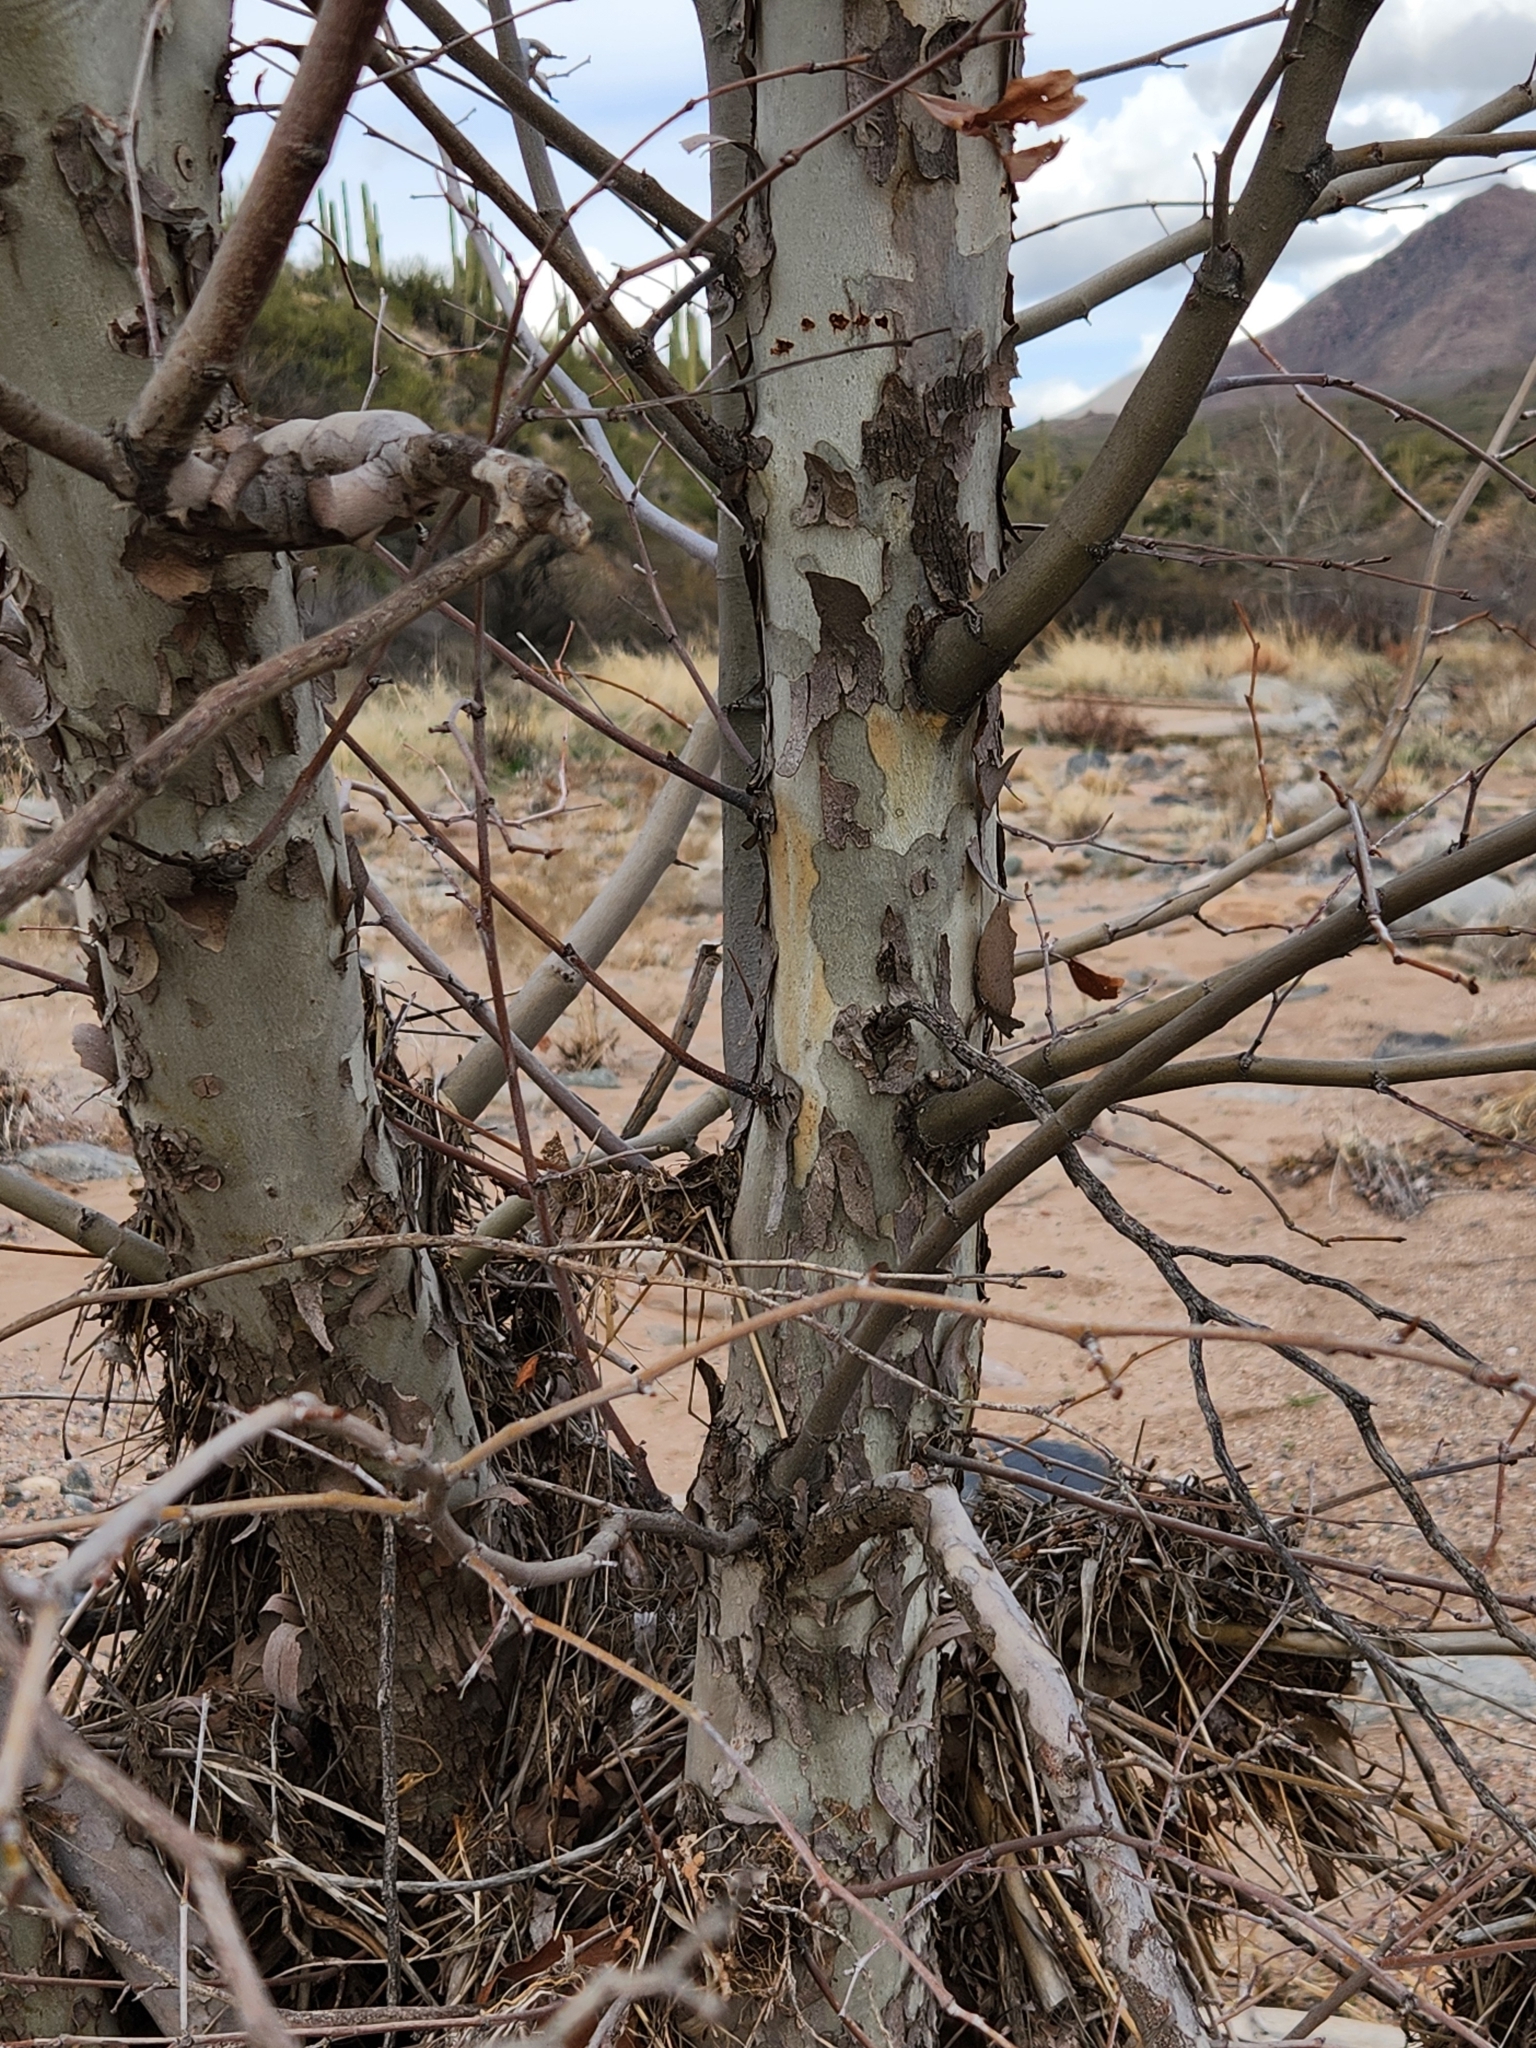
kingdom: Plantae
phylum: Tracheophyta
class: Magnoliopsida
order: Proteales
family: Platanaceae
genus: Platanus
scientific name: Platanus wrightii
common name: Arizona sycamore
